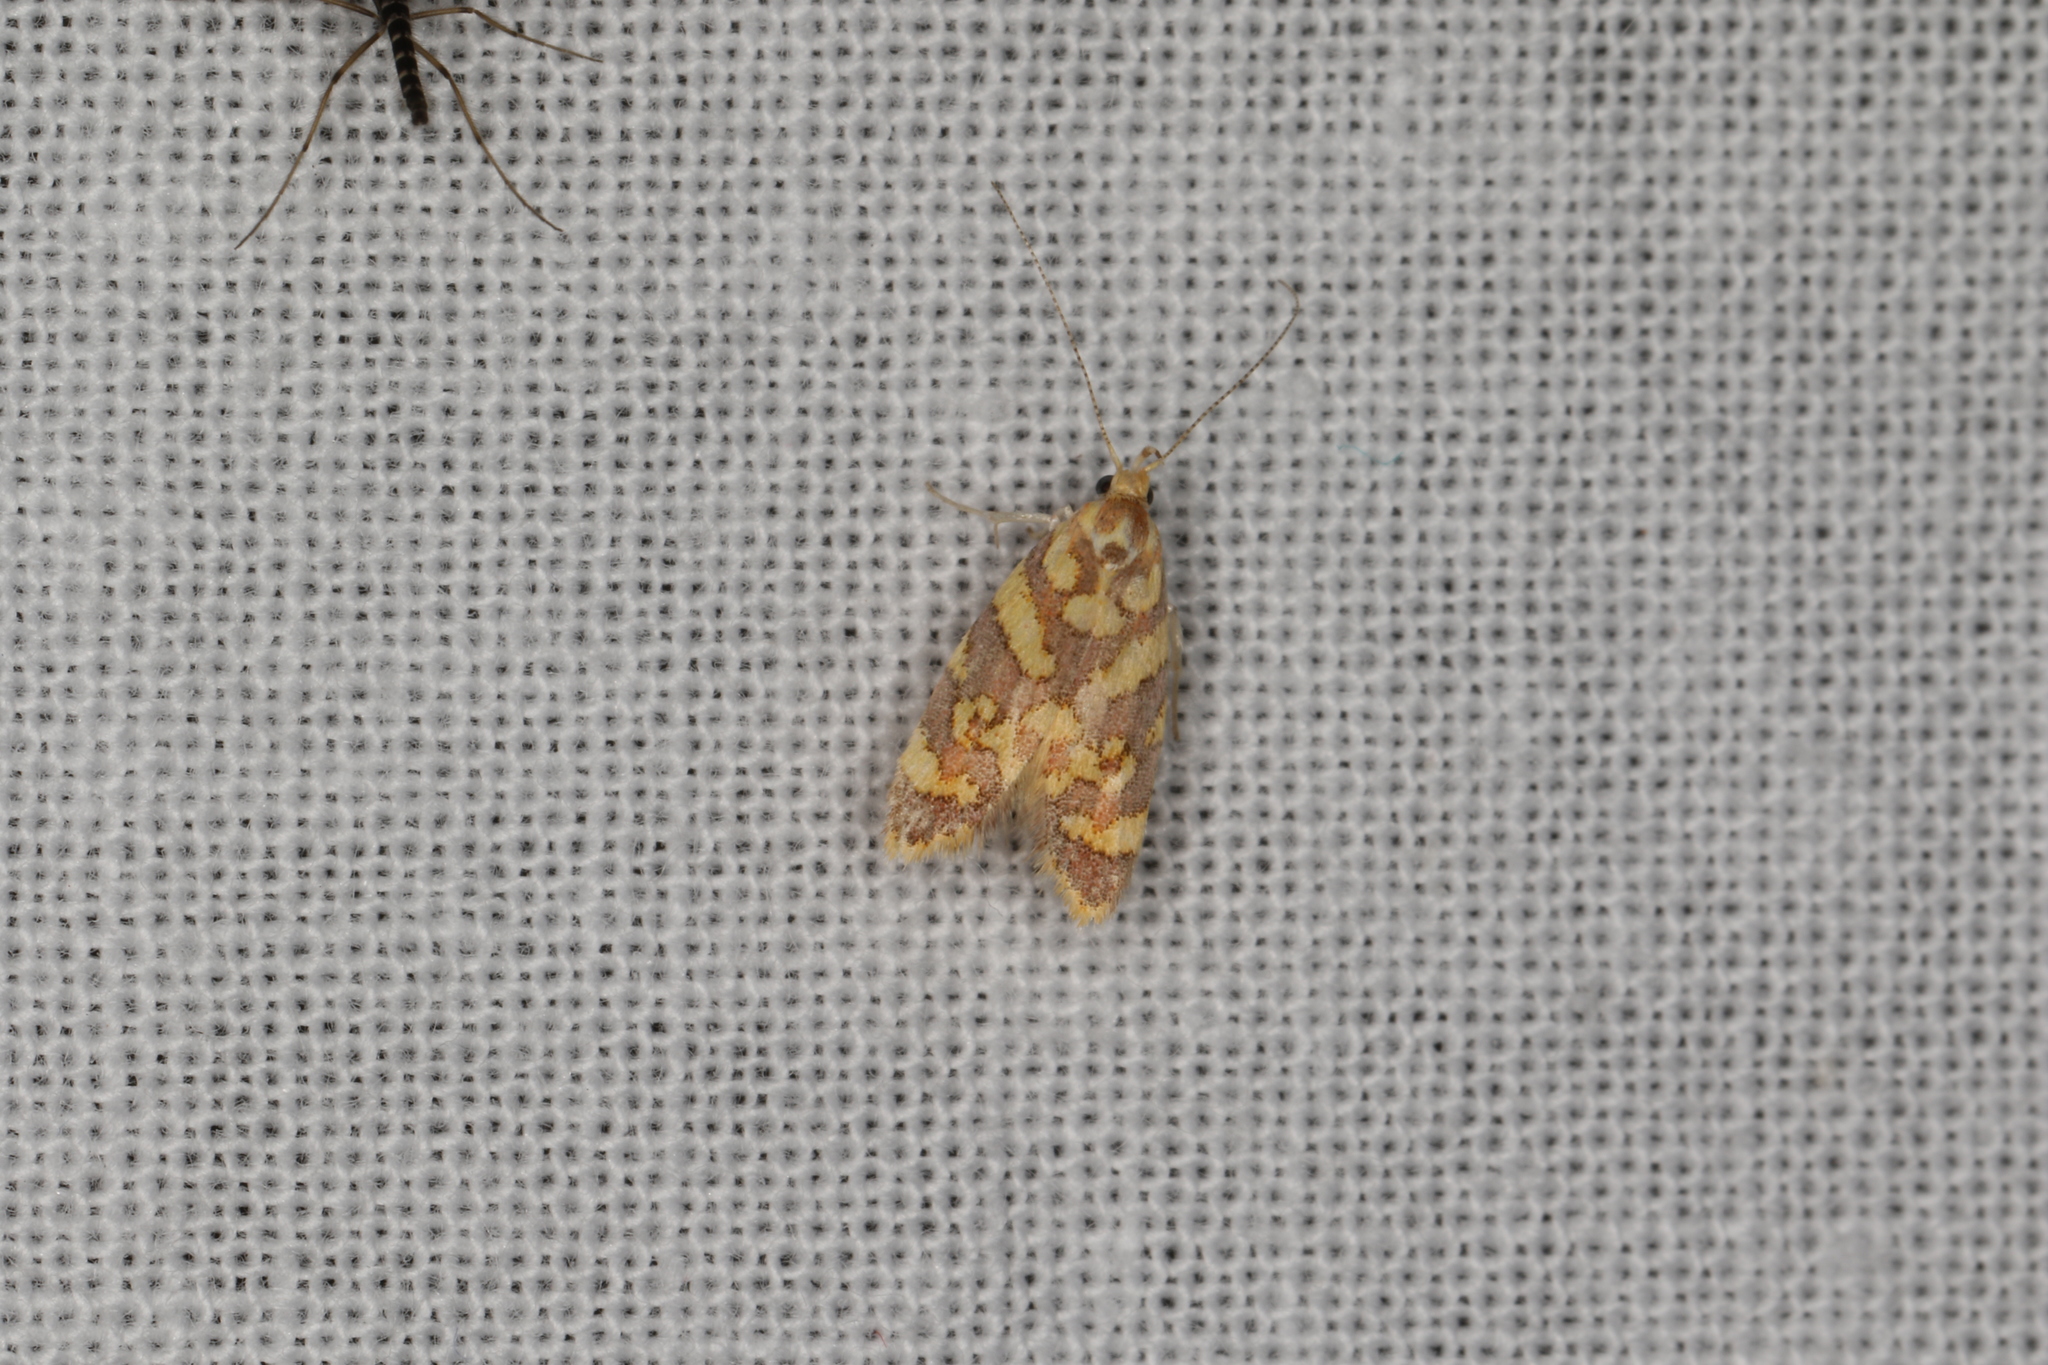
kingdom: Animalia
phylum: Arthropoda
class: Insecta
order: Lepidoptera
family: Oecophoridae
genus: Tisobarica
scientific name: Tisobarica eranna
